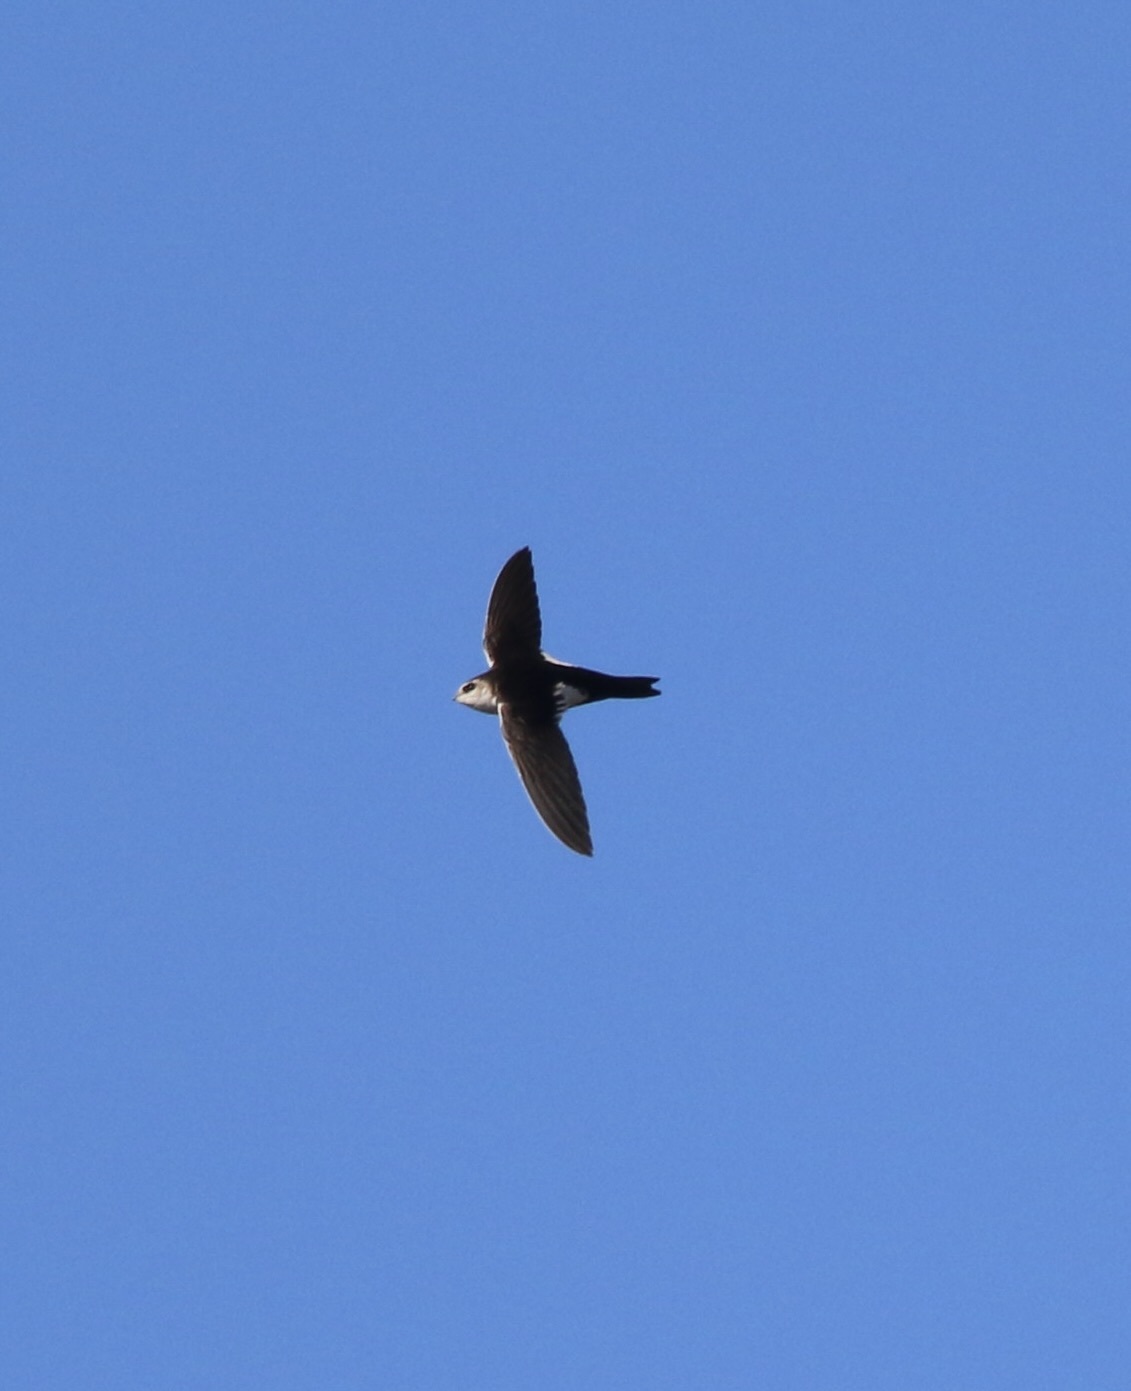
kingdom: Animalia
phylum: Chordata
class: Aves
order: Apodiformes
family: Apodidae
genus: Aeronautes
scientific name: Aeronautes saxatalis
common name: White-throated swift
